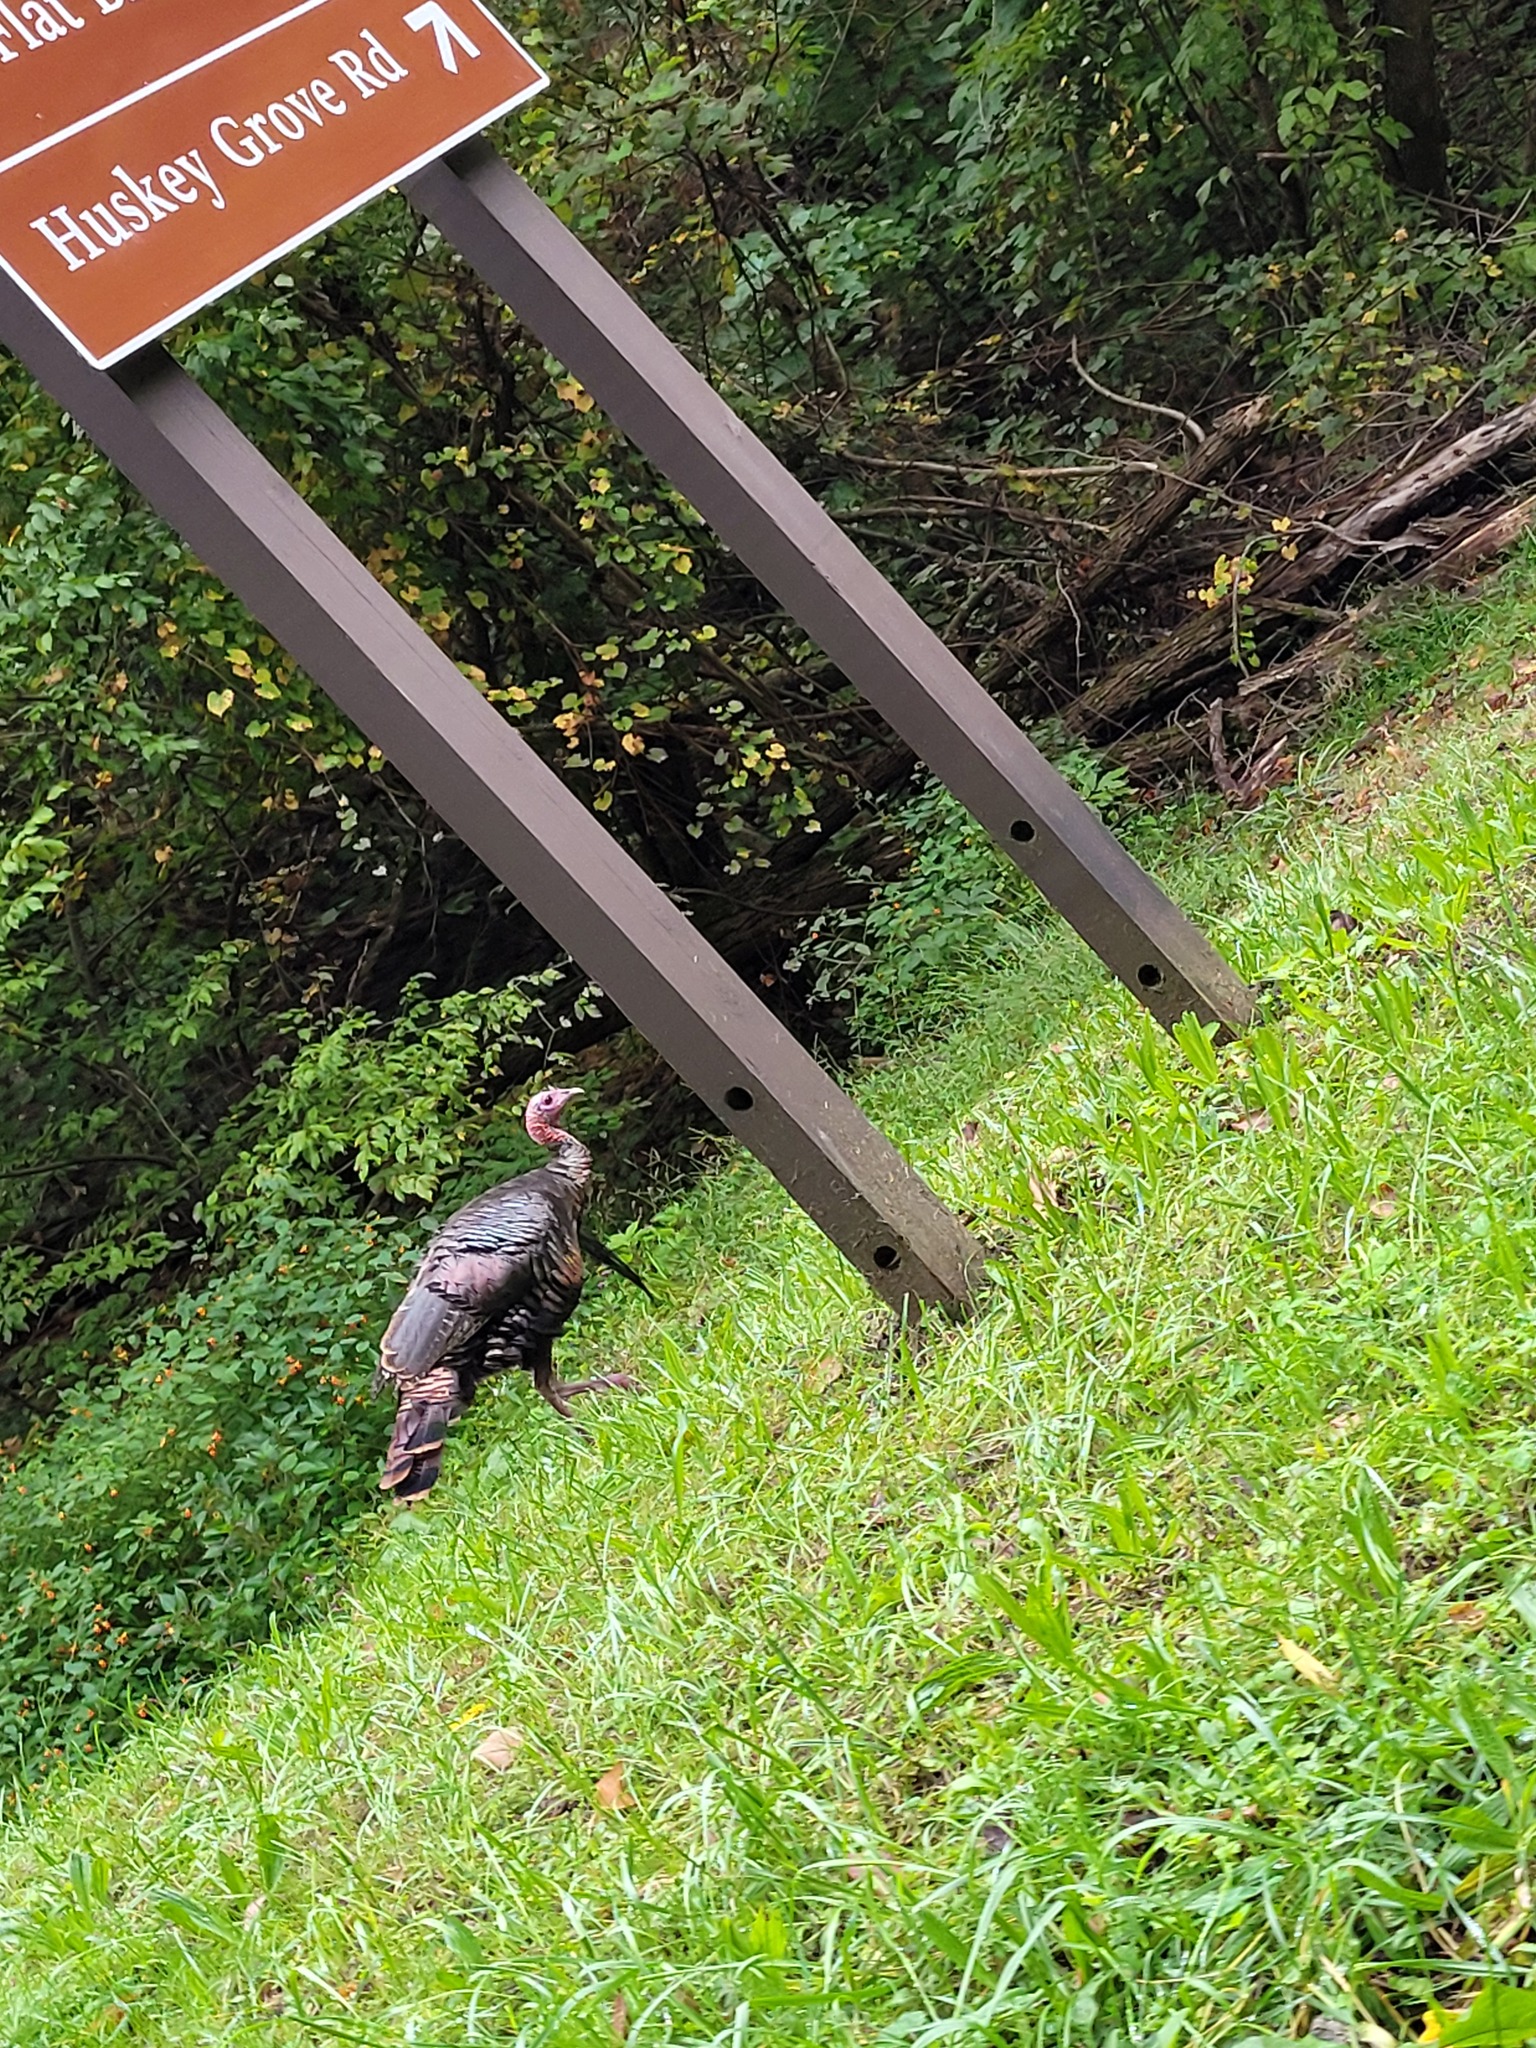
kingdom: Animalia
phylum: Chordata
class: Aves
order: Galliformes
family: Phasianidae
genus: Meleagris
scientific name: Meleagris gallopavo
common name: Wild turkey
